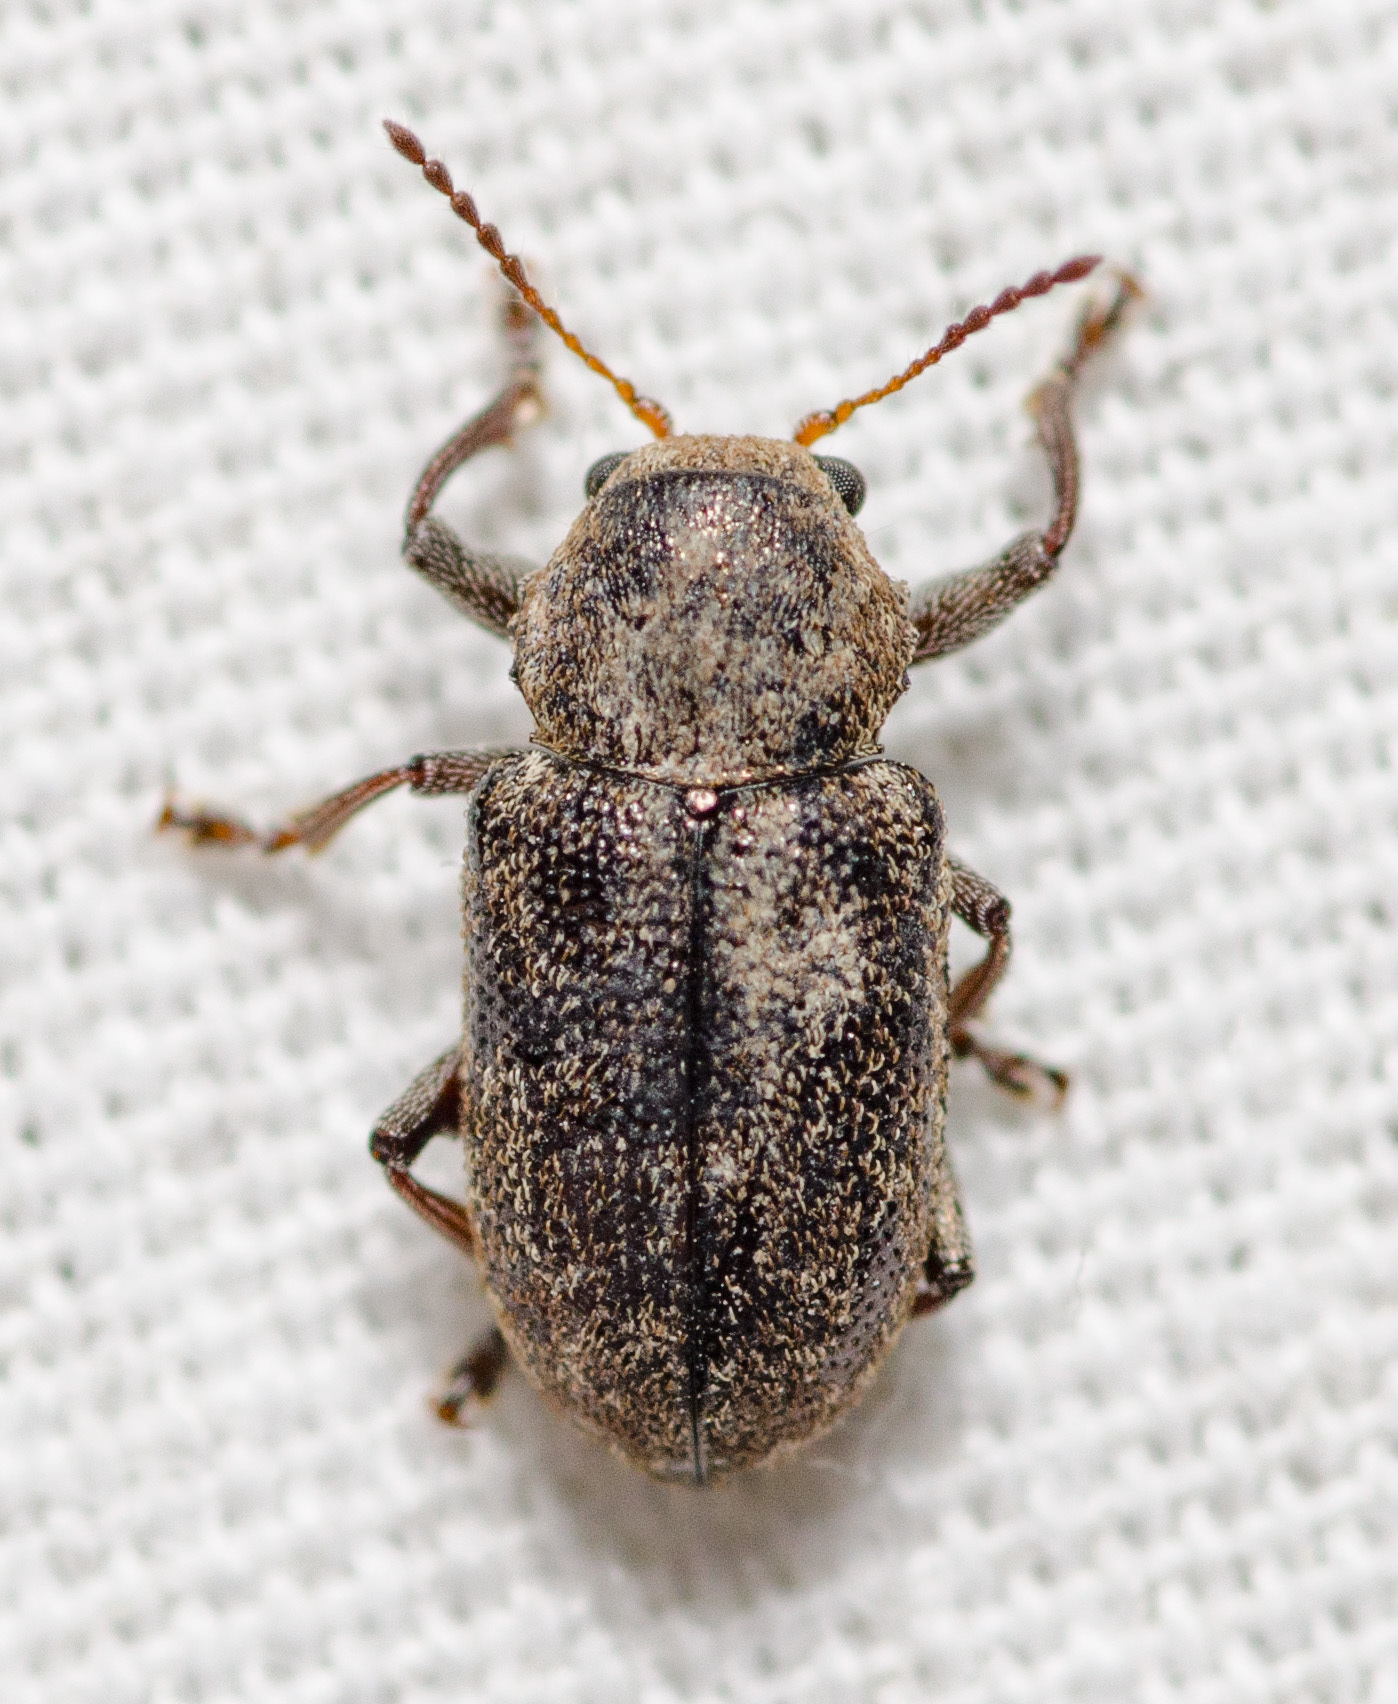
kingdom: Animalia
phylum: Arthropoda
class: Insecta
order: Coleoptera
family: Chrysomelidae
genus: Myochrous
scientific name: Myochrous
